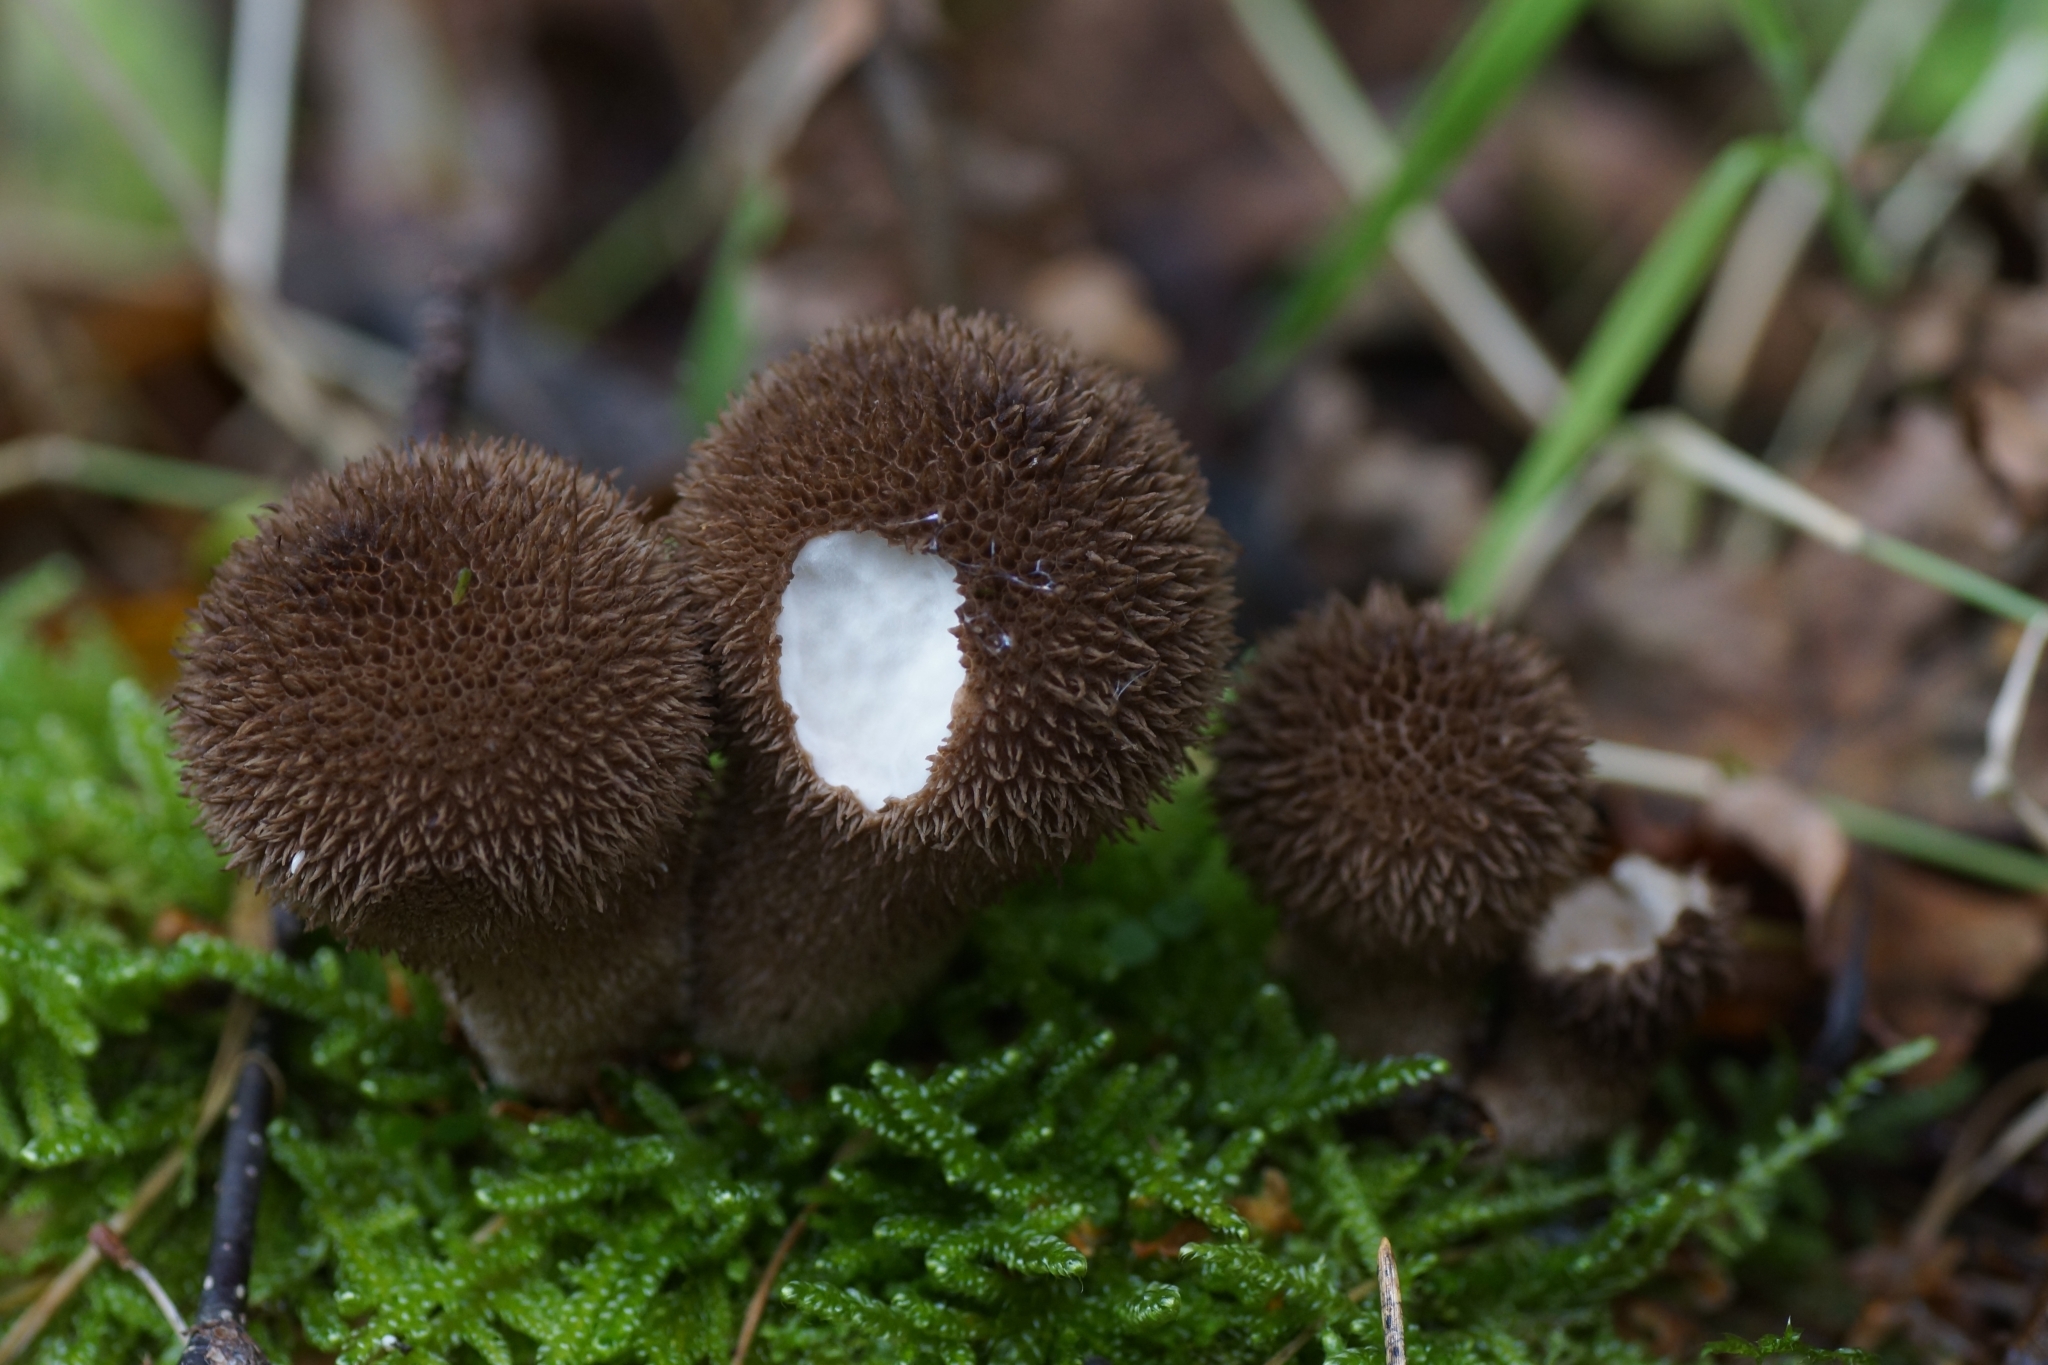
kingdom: Fungi
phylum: Basidiomycota
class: Agaricomycetes
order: Agaricales
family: Lycoperdaceae
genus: Lycoperdon
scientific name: Lycoperdon nigrescens
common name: Blackish puffball
